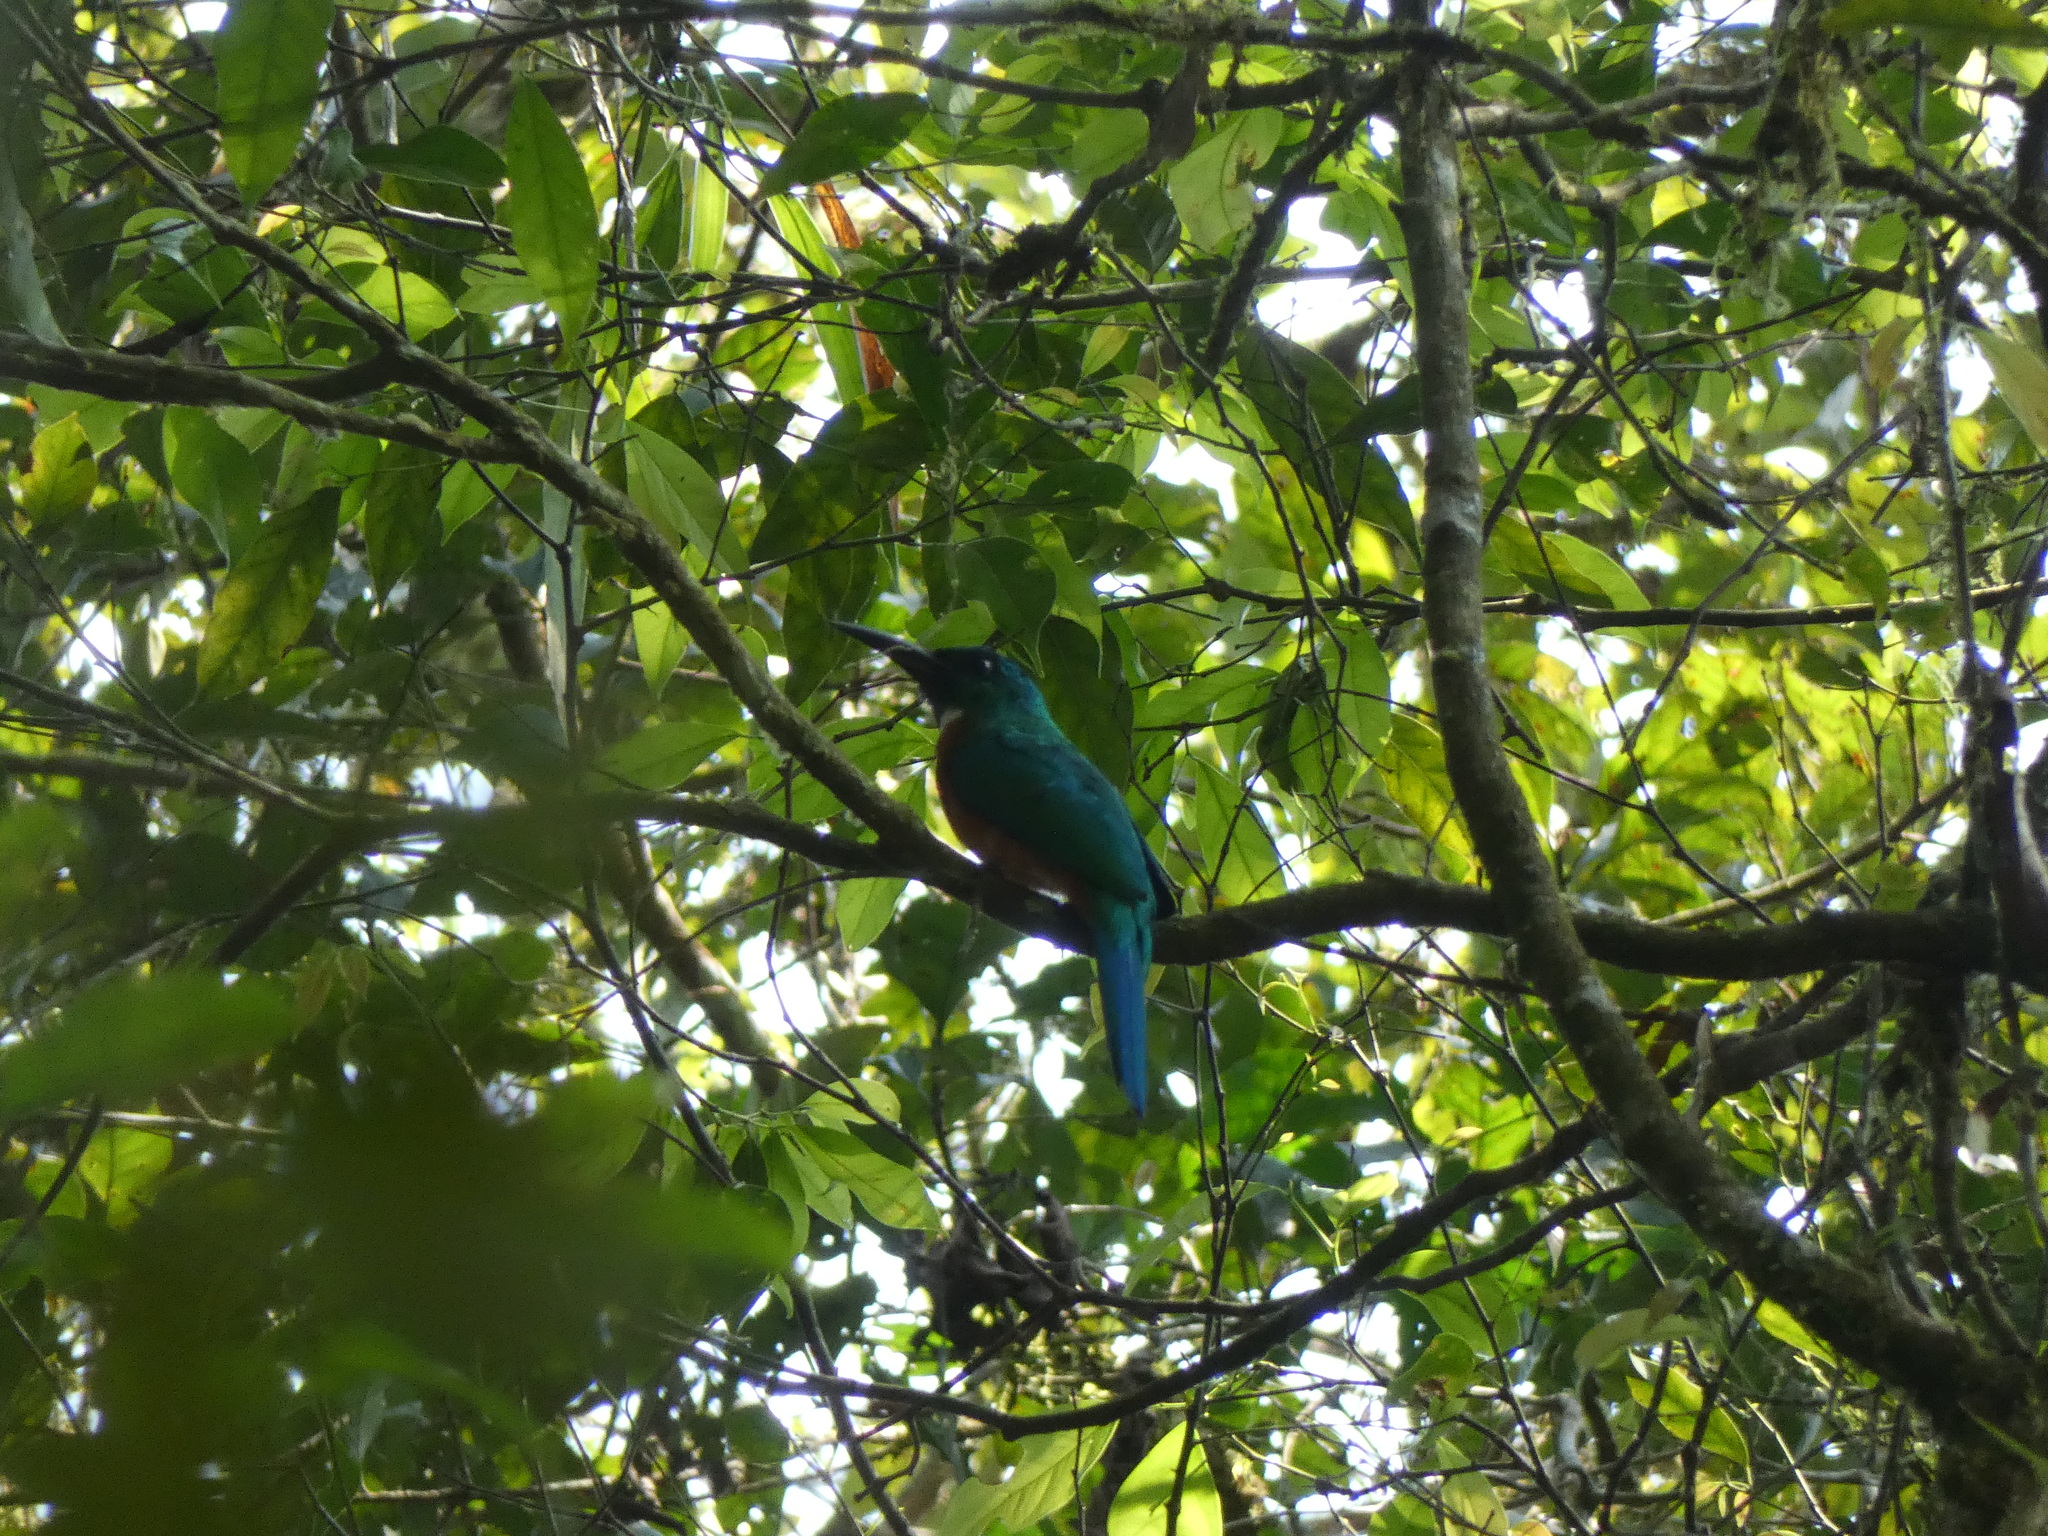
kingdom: Animalia
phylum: Chordata
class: Aves
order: Piciformes
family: Galbulidae
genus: Jacamerops
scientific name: Jacamerops aureus
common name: Great jacamar
